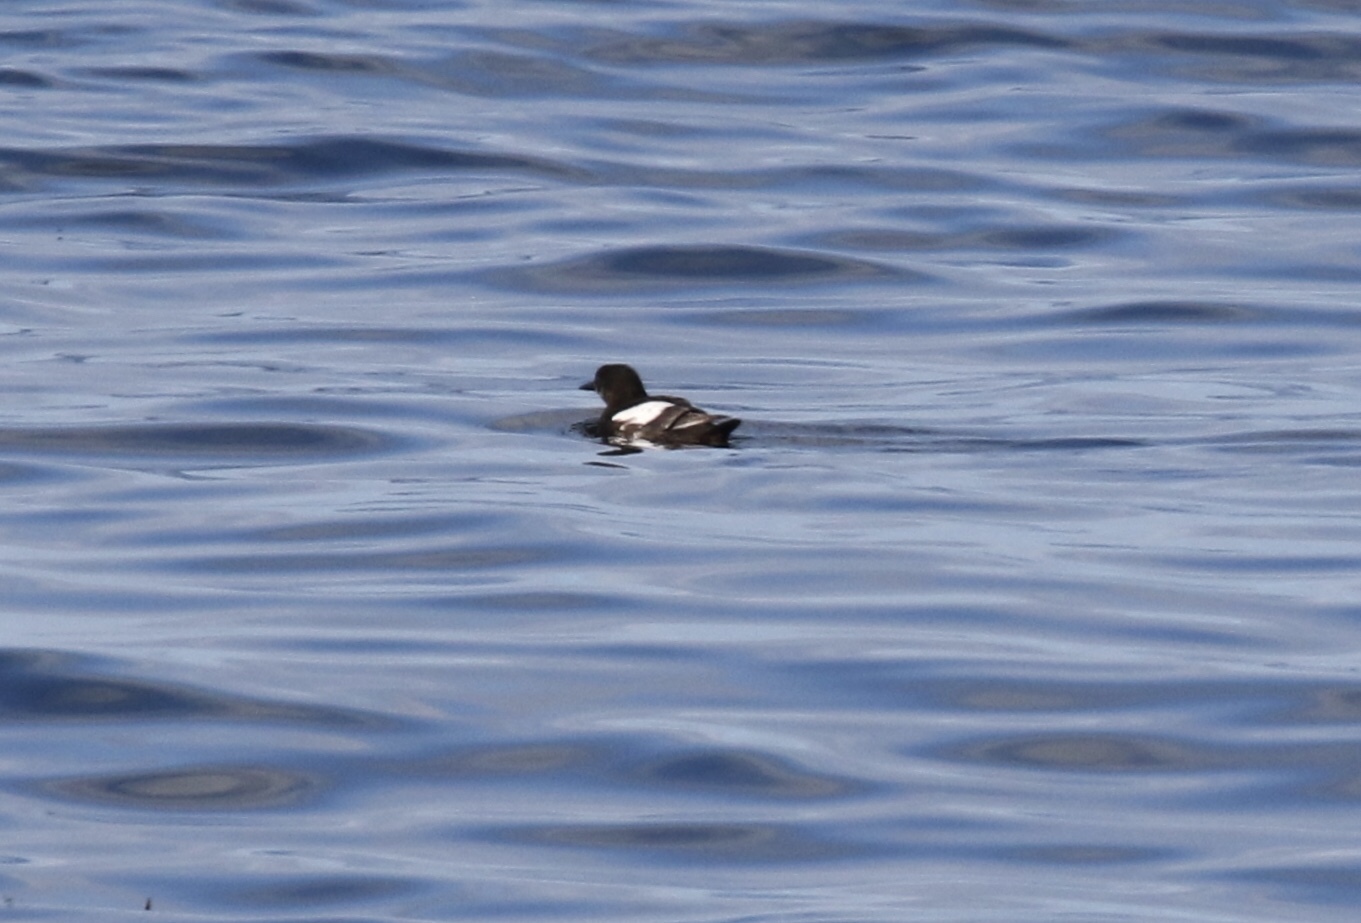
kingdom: Animalia
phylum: Chordata
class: Aves
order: Charadriiformes
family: Alcidae
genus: Cepphus
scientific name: Cepphus grylle
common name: Black guillemot
